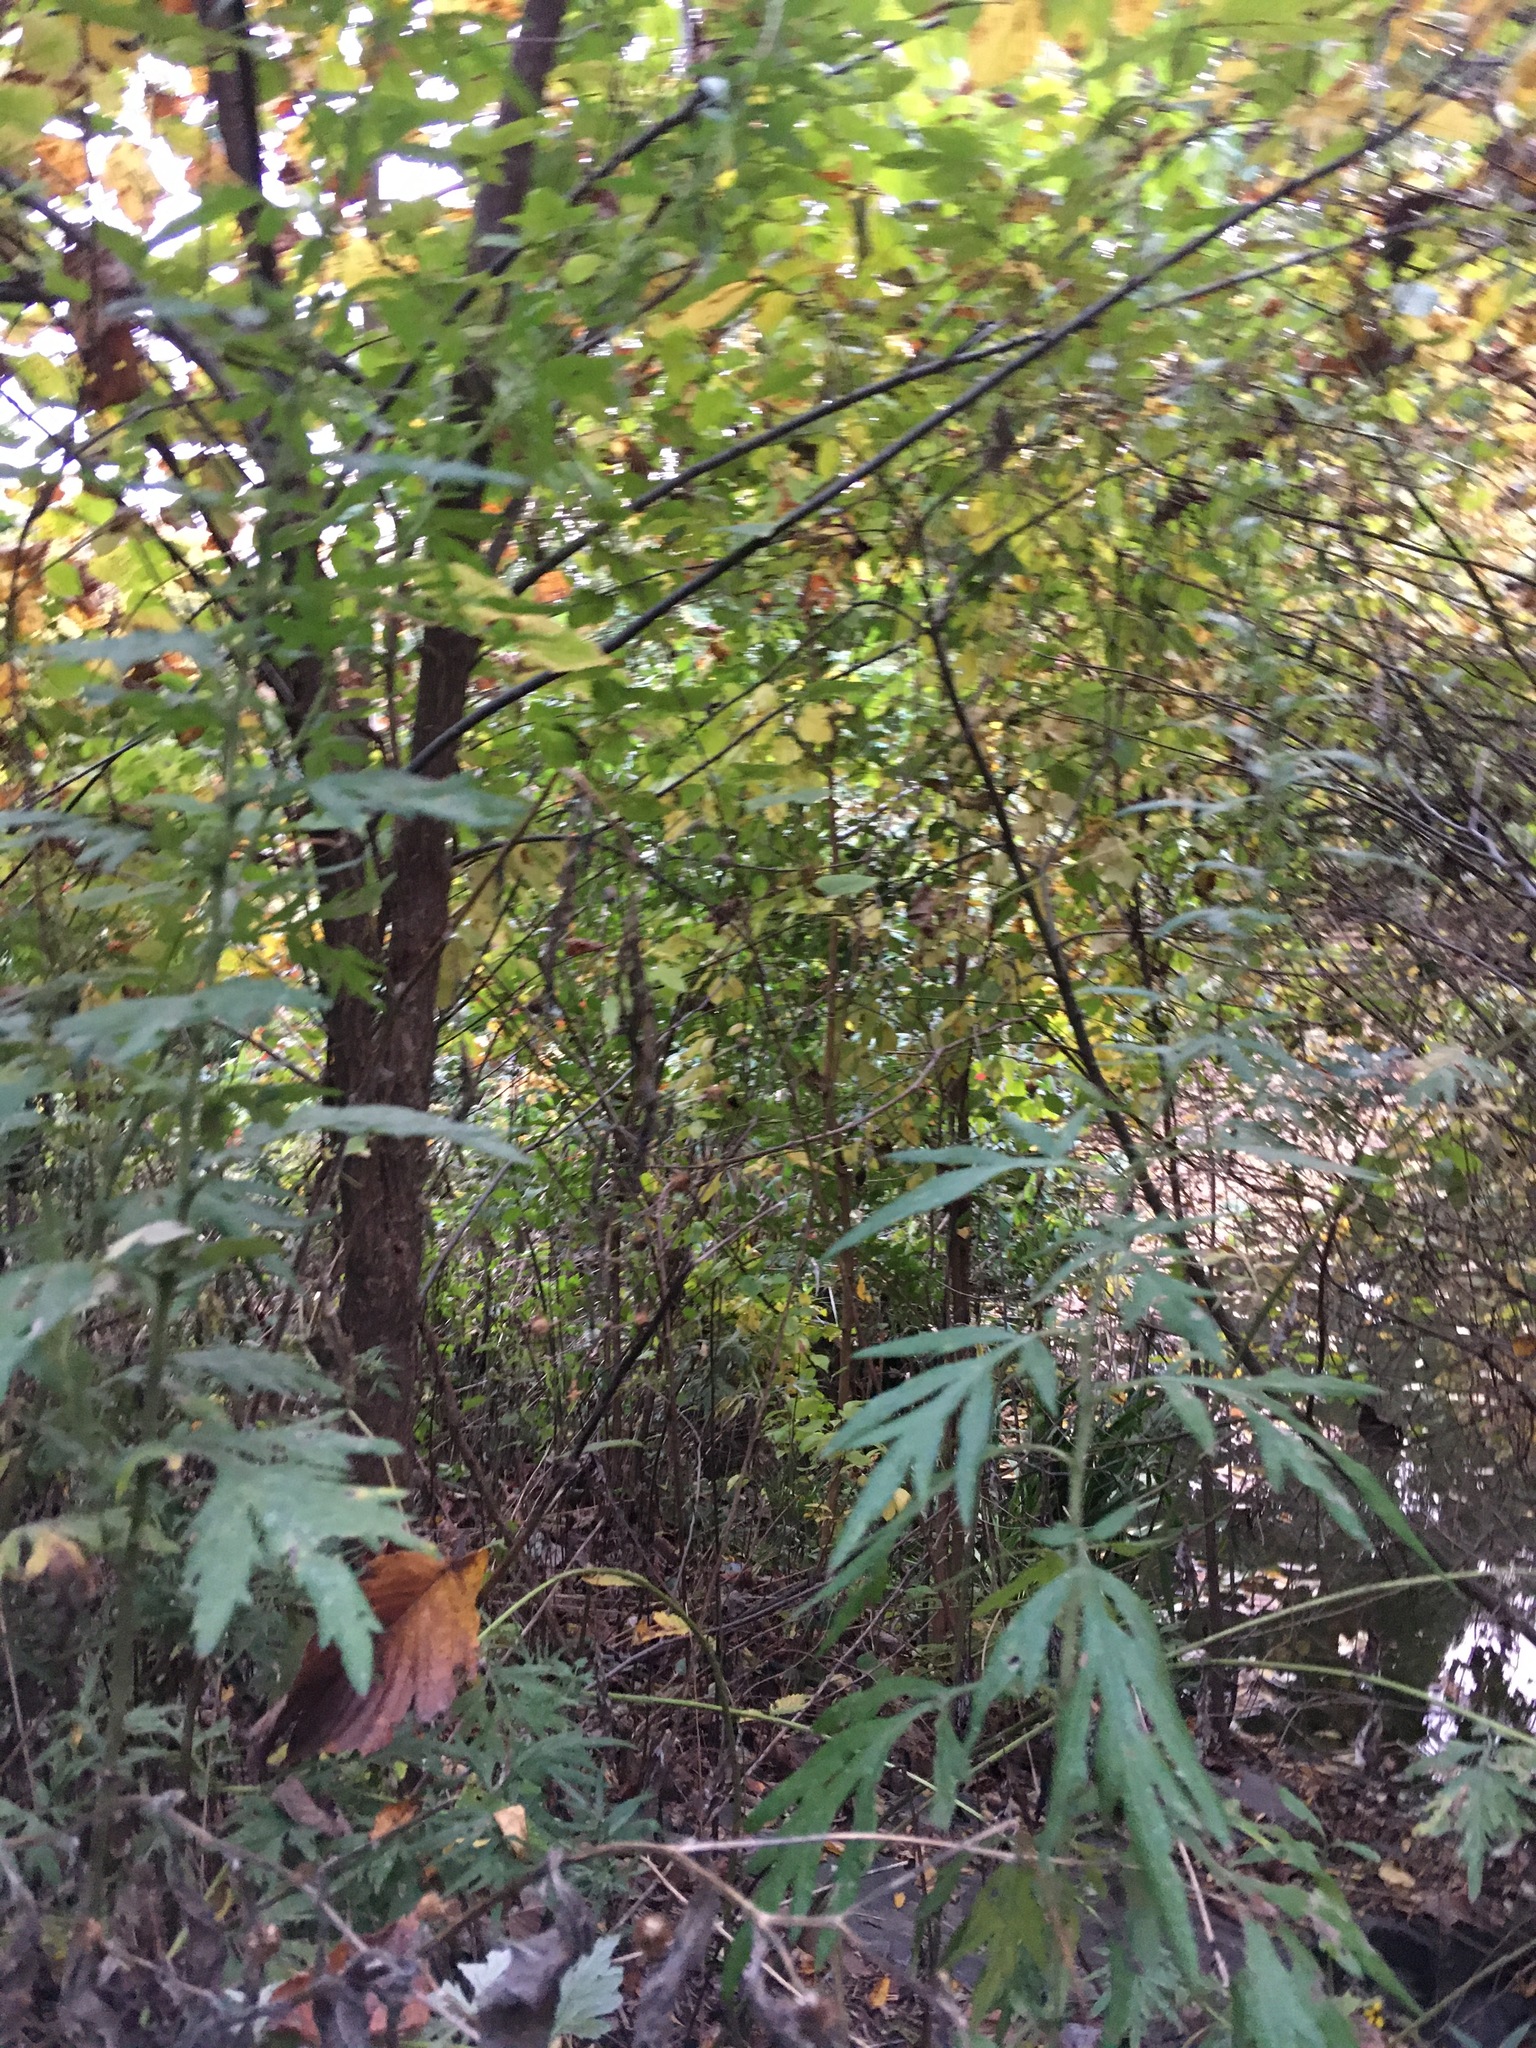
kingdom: Plantae
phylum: Tracheophyta
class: Magnoliopsida
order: Asterales
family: Asteraceae
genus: Artemisia
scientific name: Artemisia vulgaris
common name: Mugwort
